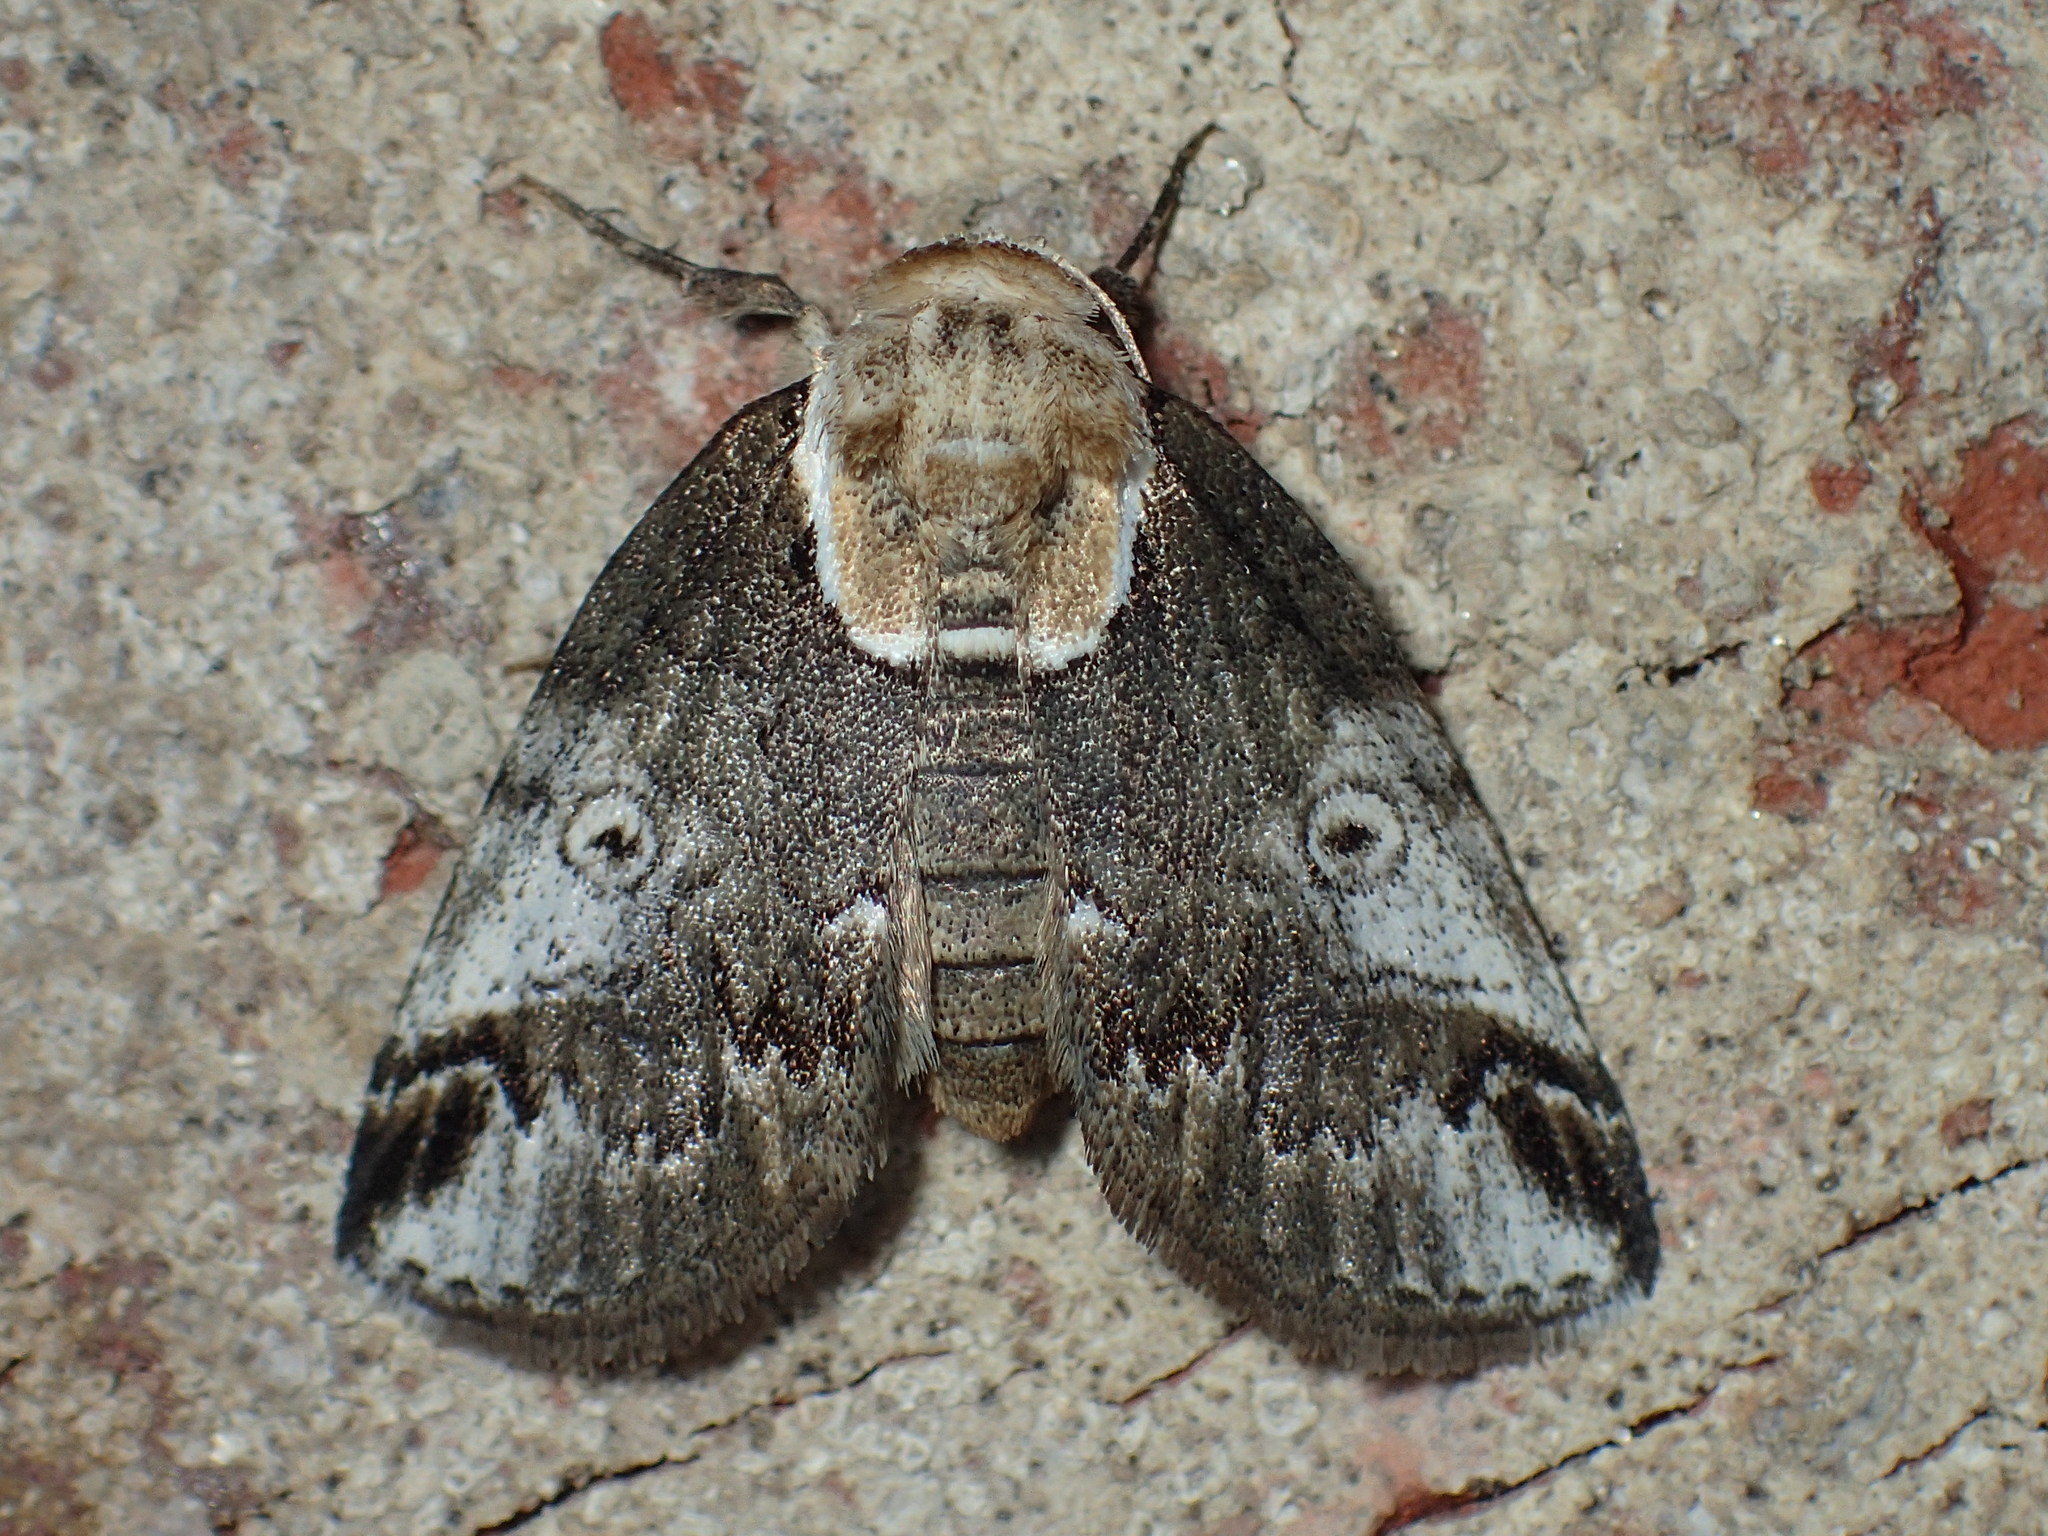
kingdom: Animalia
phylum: Arthropoda
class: Insecta
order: Lepidoptera
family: Nolidae
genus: Baileya
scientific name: Baileya ophthalmica
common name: Eyed baileya moth
